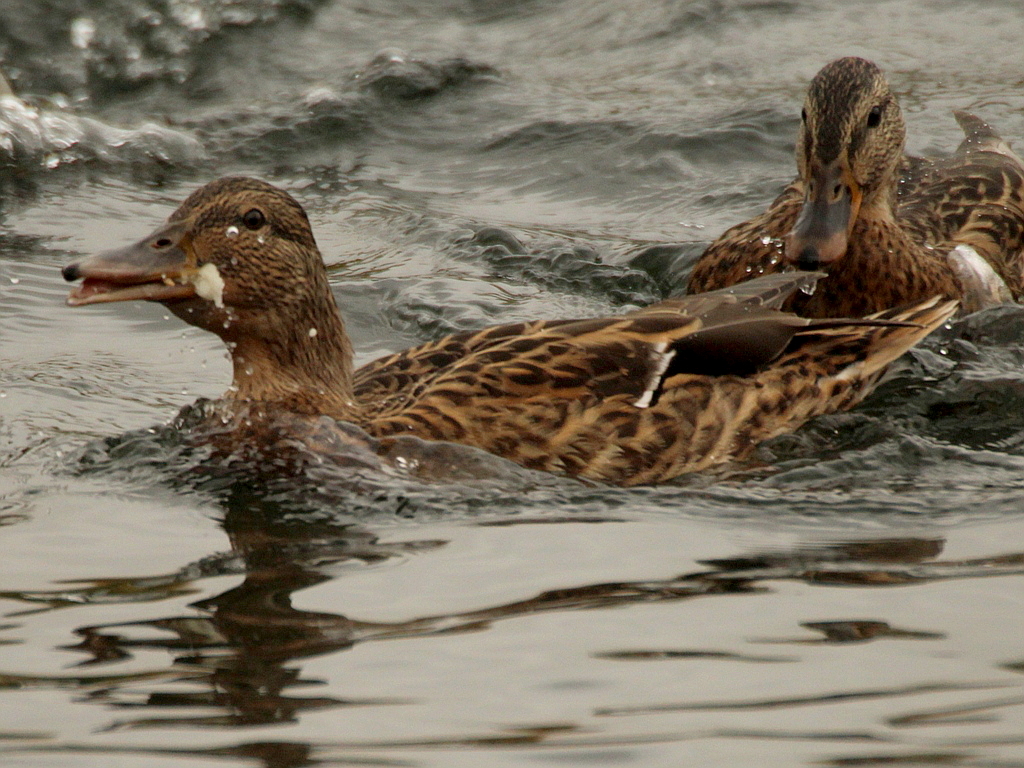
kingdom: Animalia
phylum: Chordata
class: Aves
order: Anseriformes
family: Anatidae
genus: Anas
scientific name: Anas platyrhynchos
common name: Mallard
